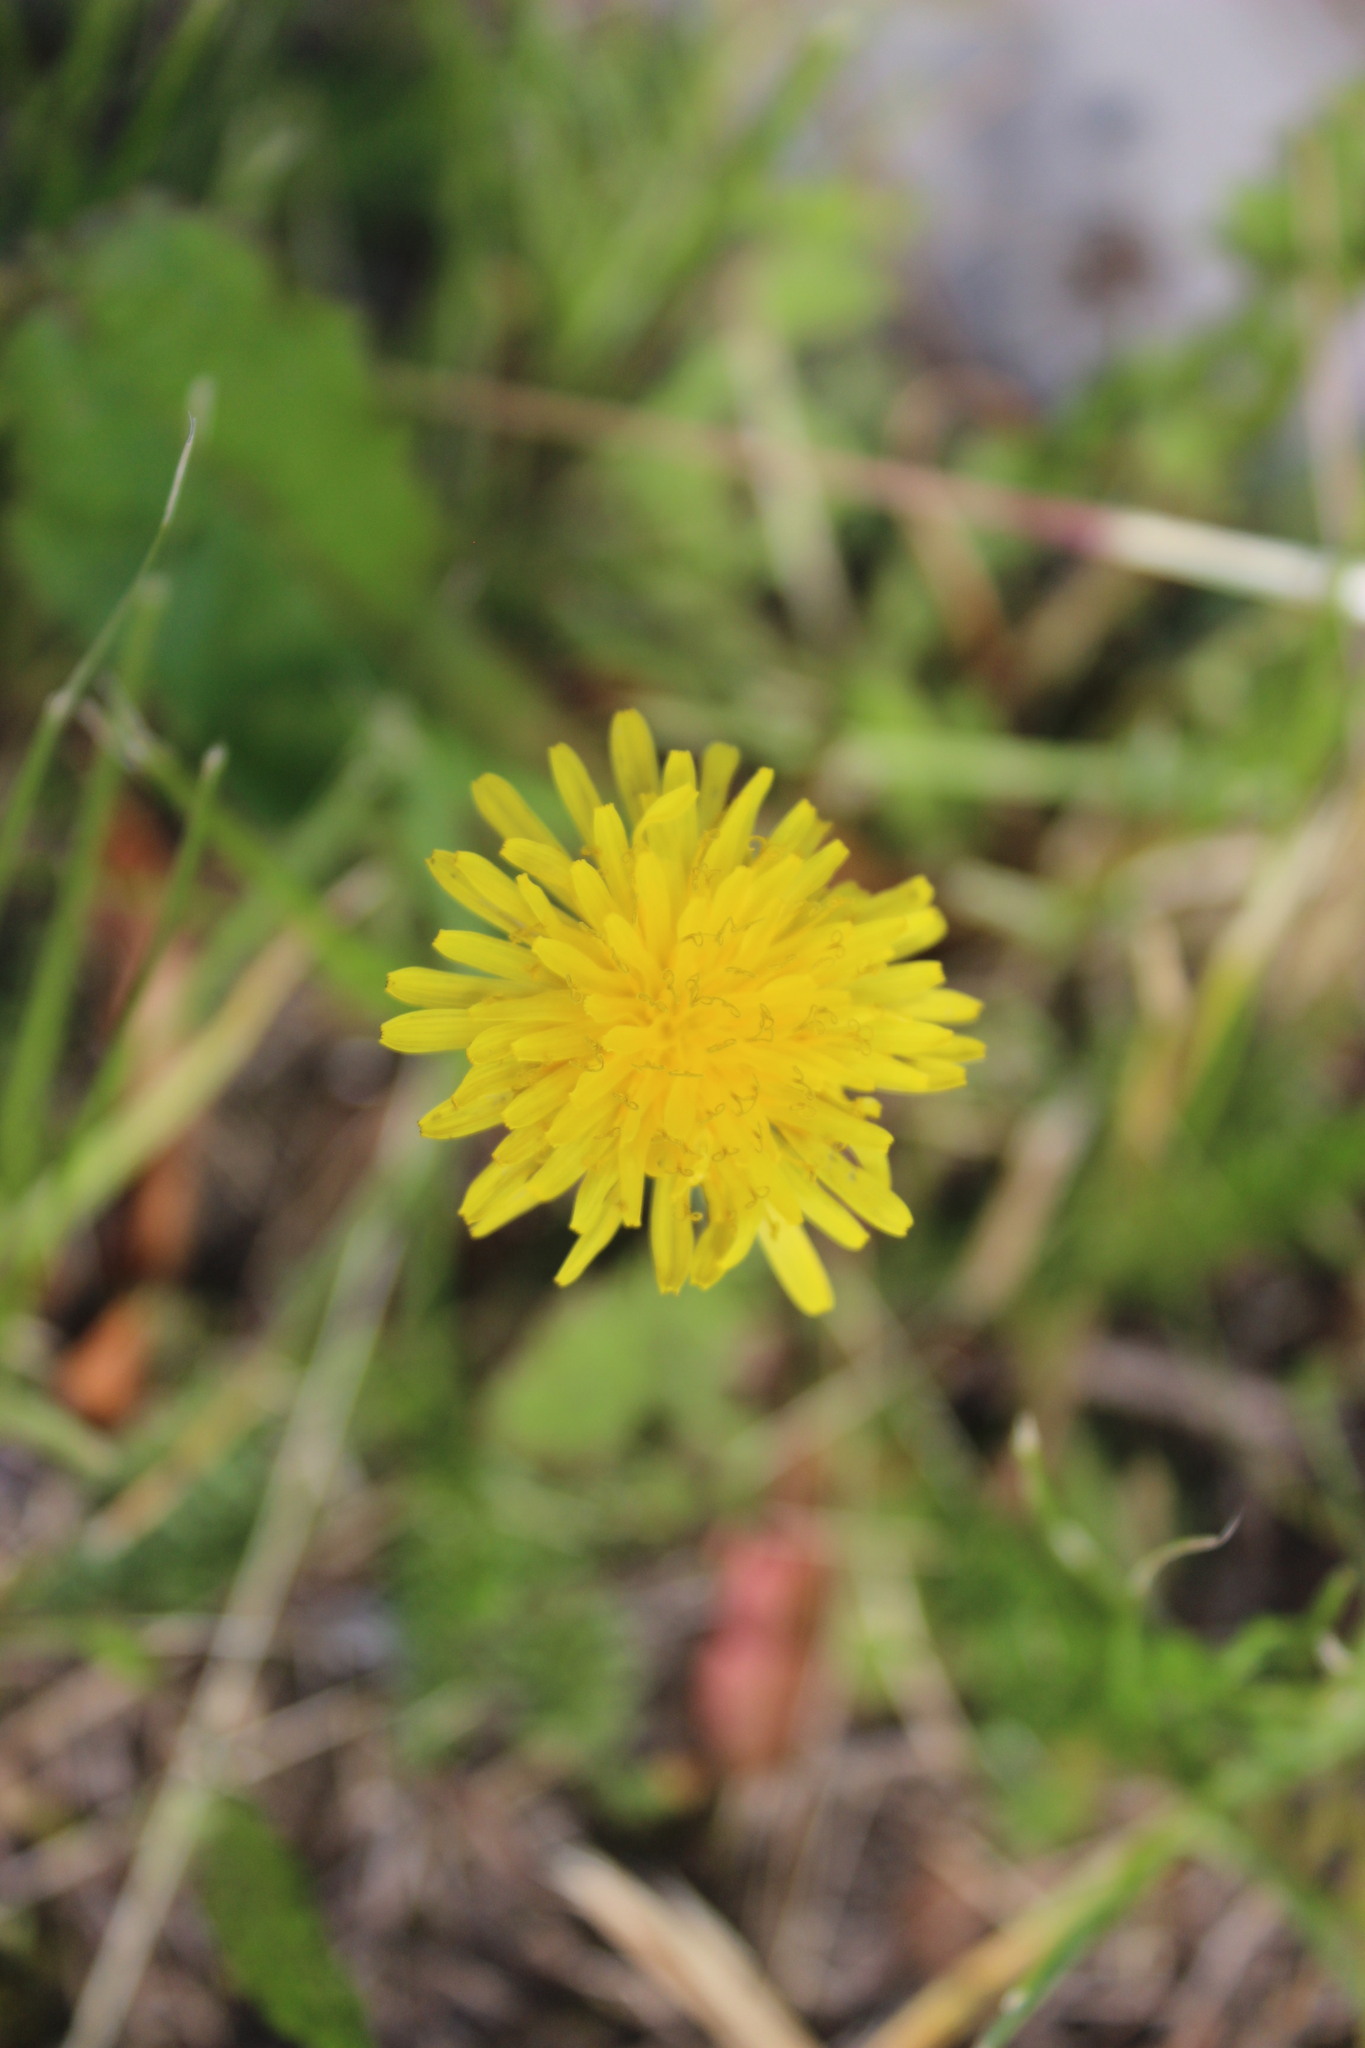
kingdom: Plantae
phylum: Tracheophyta
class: Magnoliopsida
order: Asterales
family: Asteraceae
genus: Scorzoneroides
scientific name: Scorzoneroides autumnalis
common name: Autumn hawkbit
